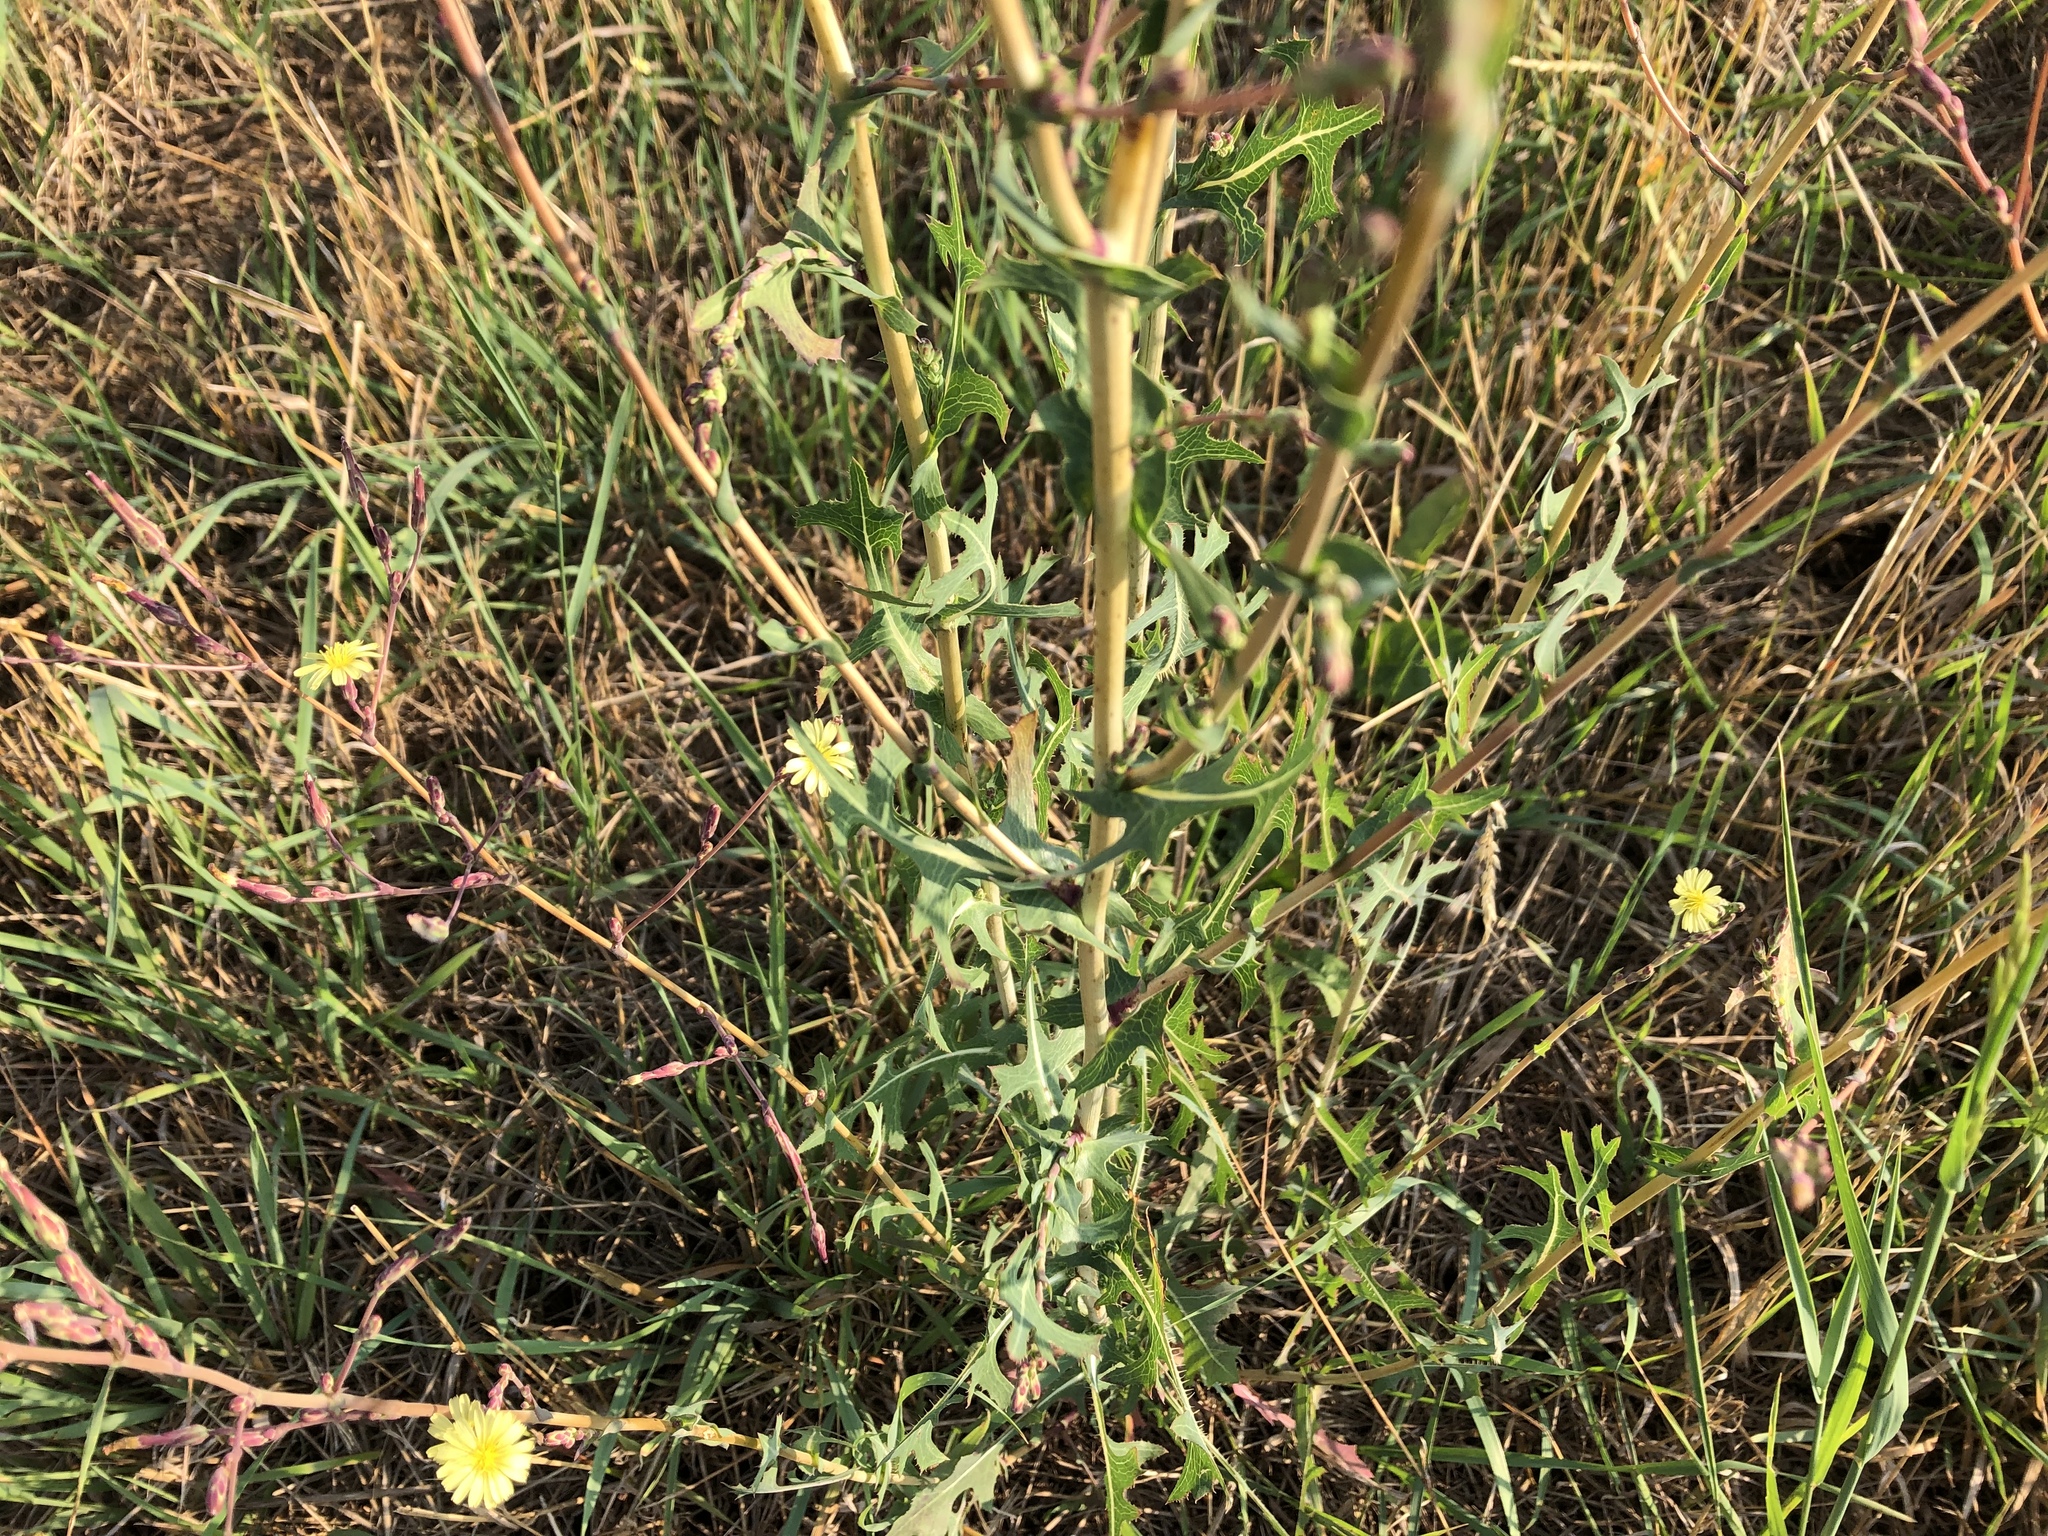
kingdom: Plantae
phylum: Tracheophyta
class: Magnoliopsida
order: Asterales
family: Asteraceae
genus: Lactuca
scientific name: Lactuca serriola
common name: Prickly lettuce
